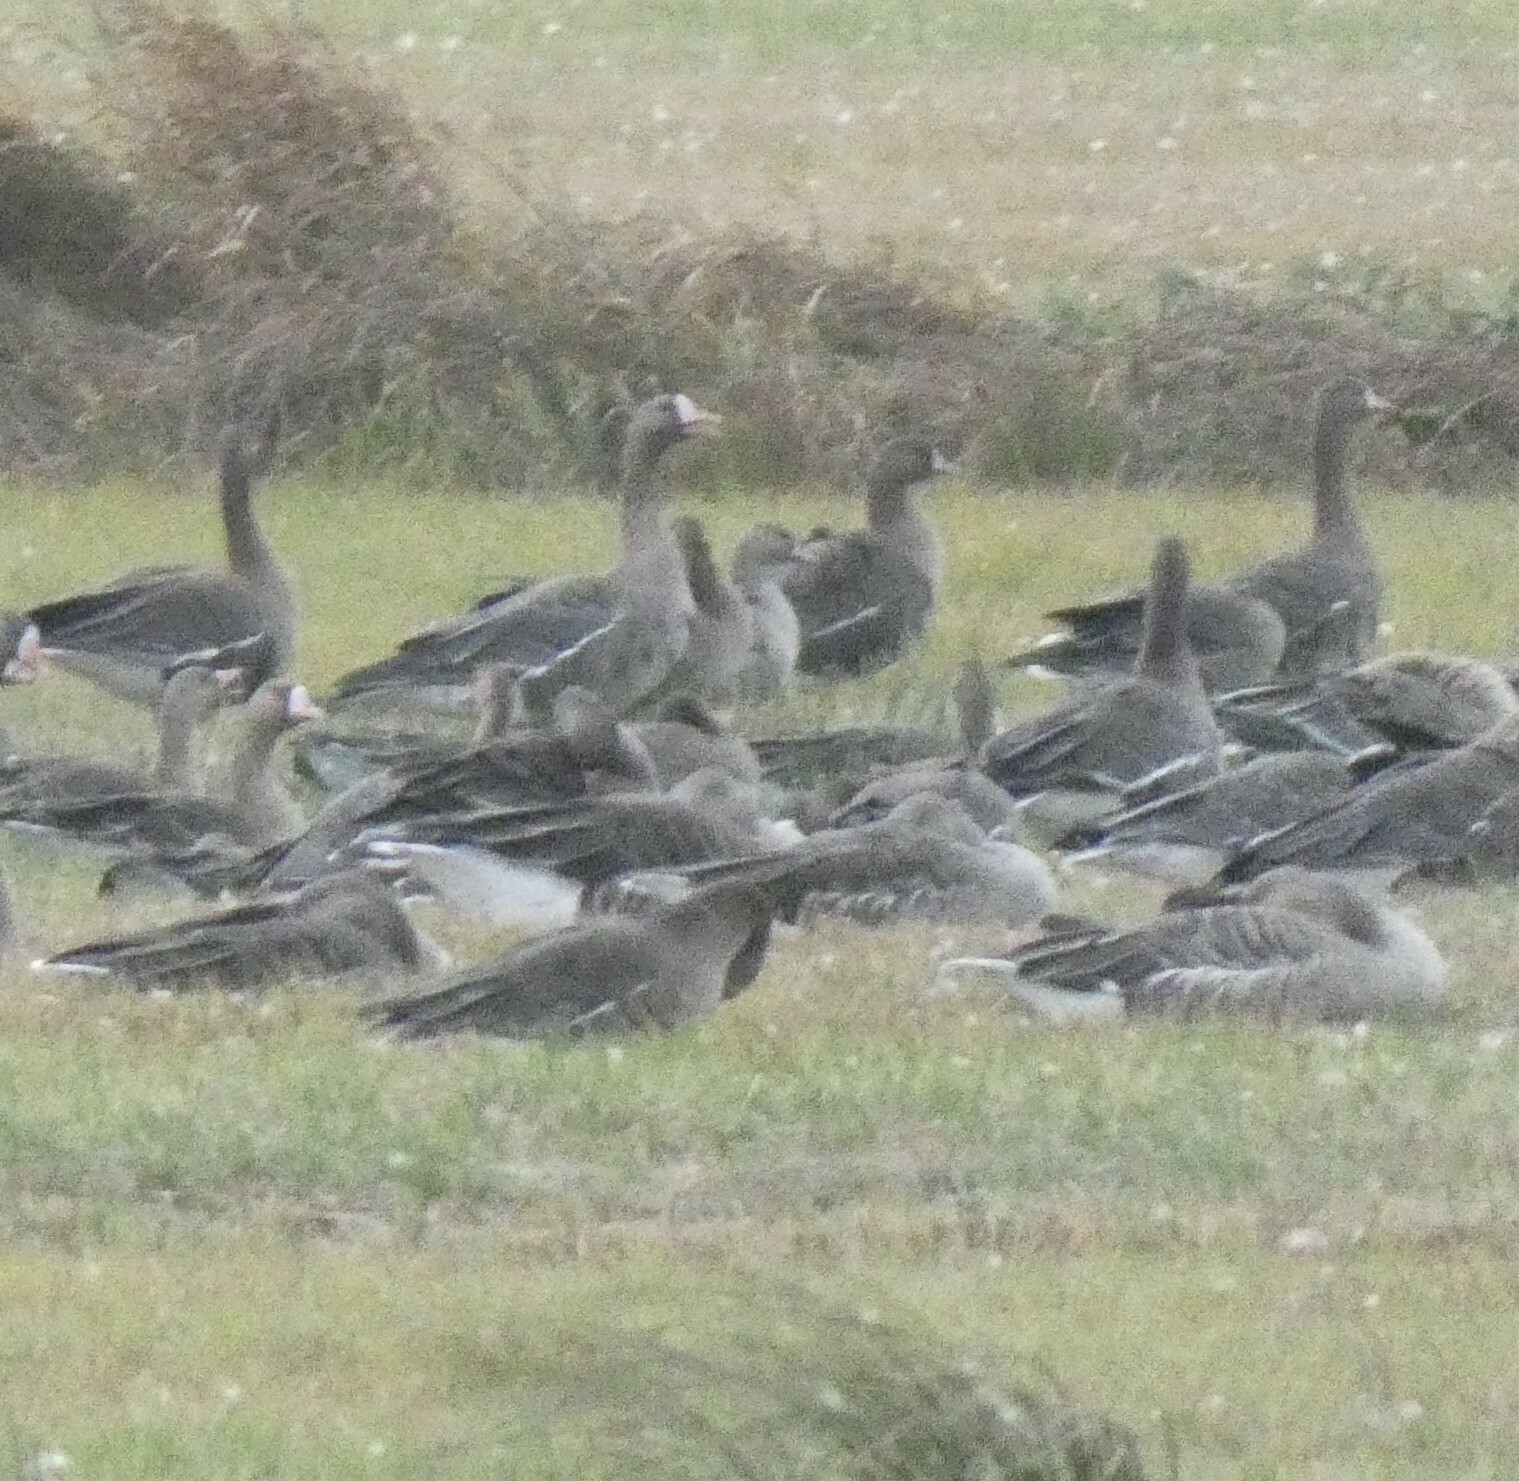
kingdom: Animalia
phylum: Chordata
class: Aves
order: Anseriformes
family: Anatidae
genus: Anser
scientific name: Anser albifrons
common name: Greater white-fronted goose
